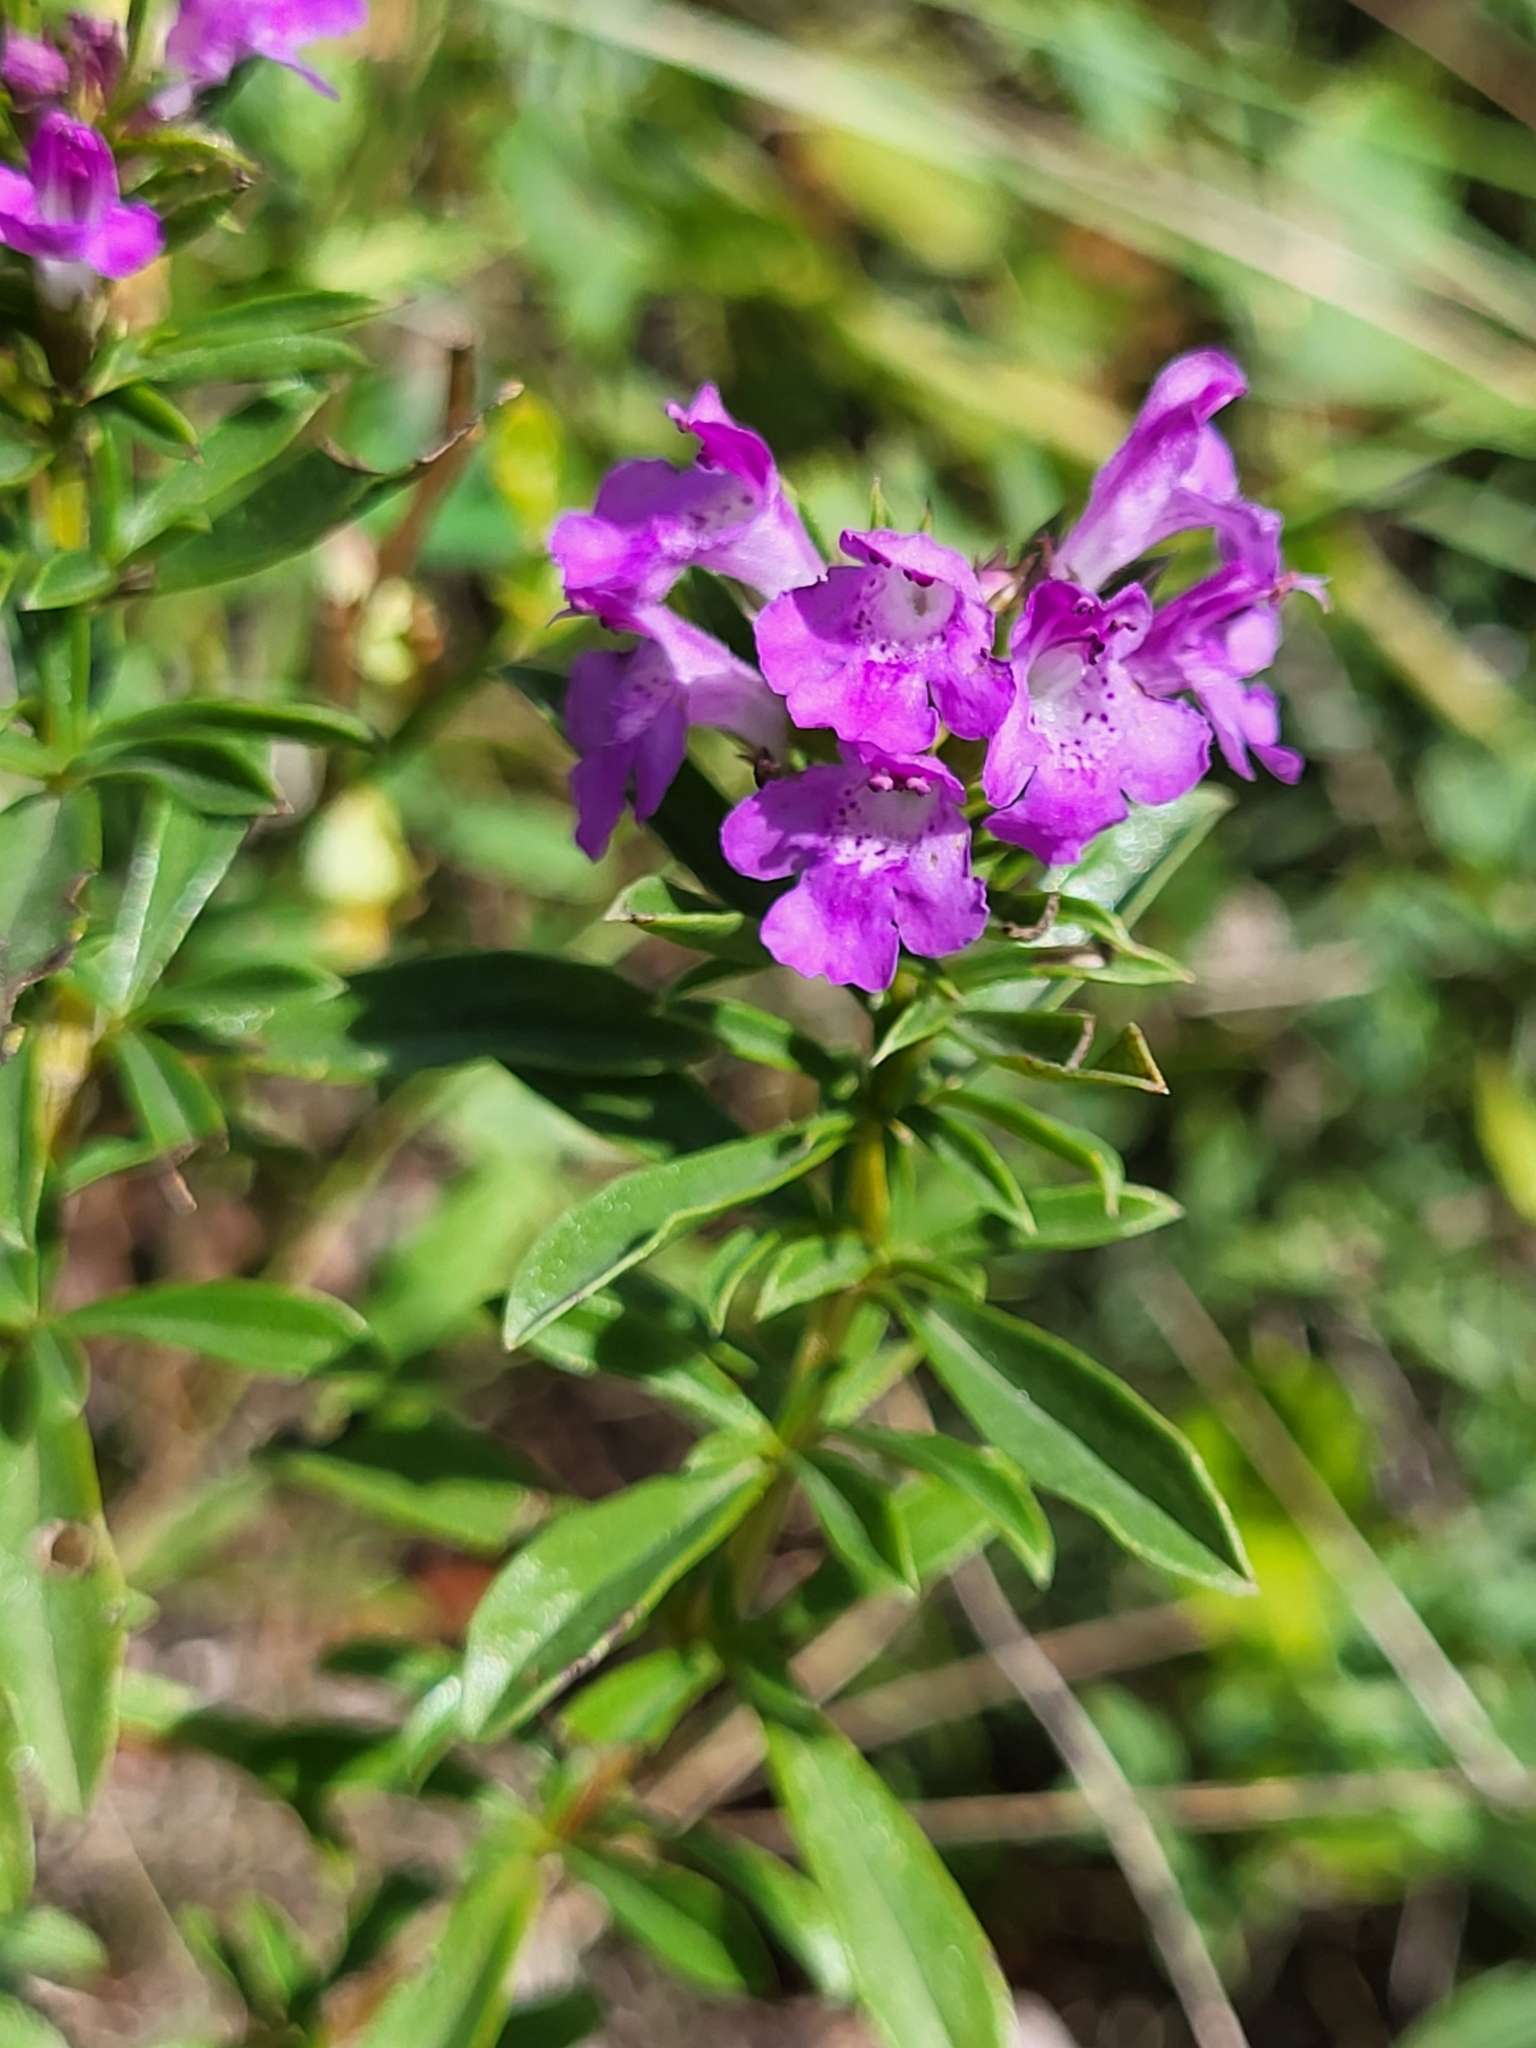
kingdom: Plantae
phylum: Tracheophyta
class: Magnoliopsida
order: Lamiales
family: Lamiaceae
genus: Satureja
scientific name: Satureja subspicata
